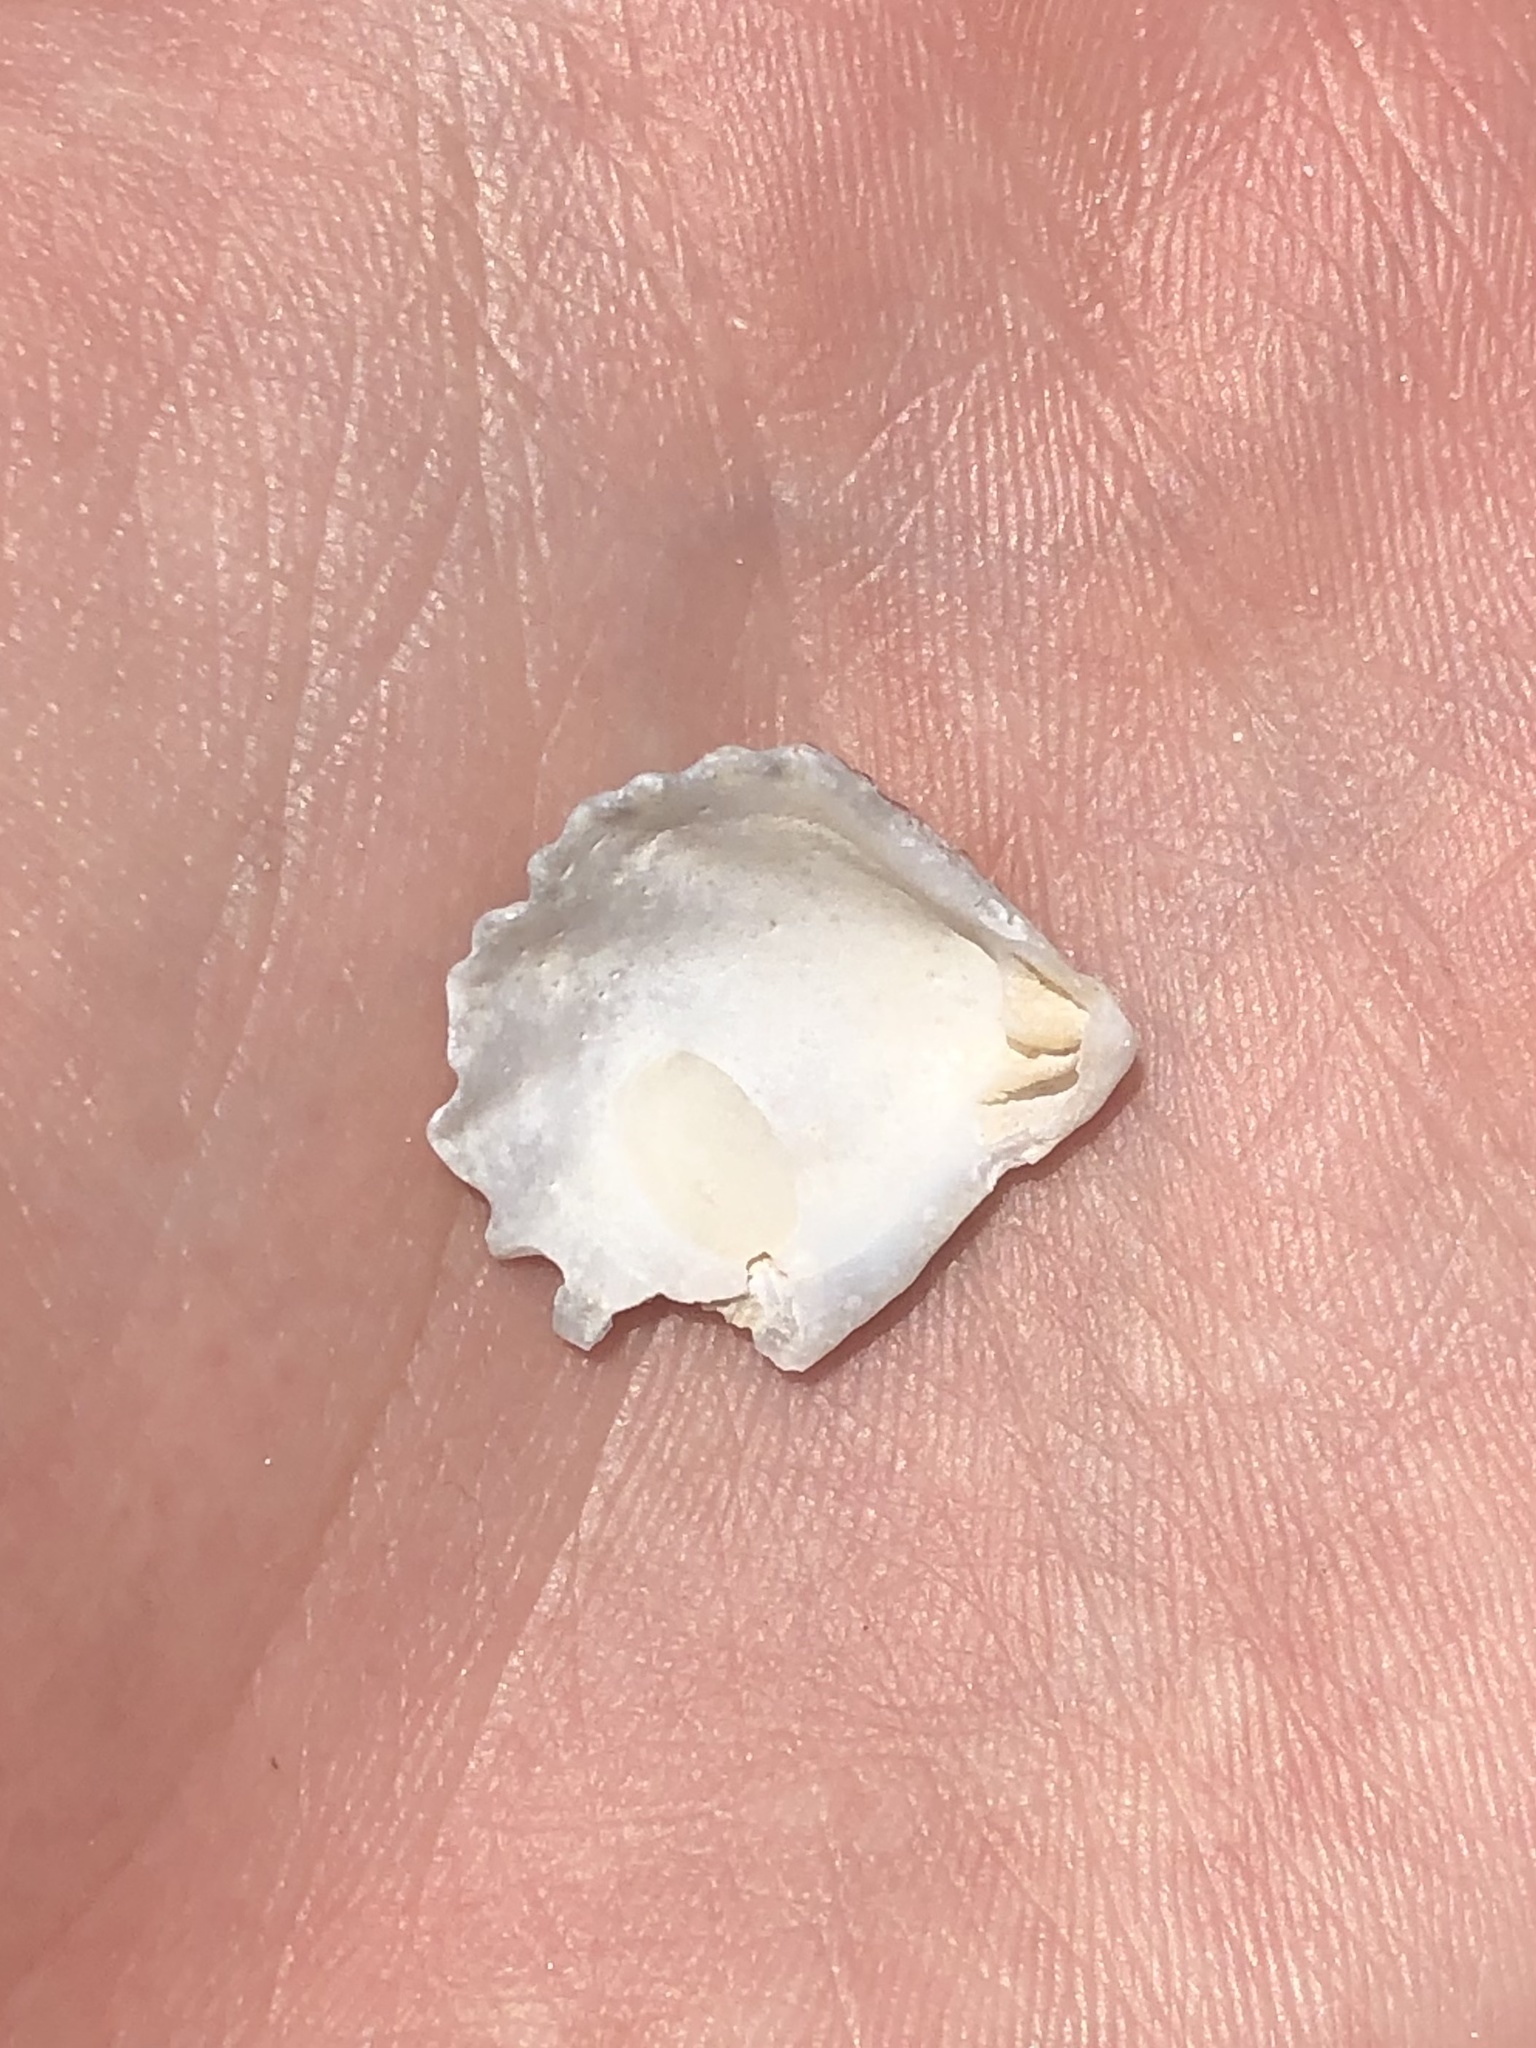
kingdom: Animalia
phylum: Mollusca
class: Bivalvia
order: Pectinida
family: Plicatulidae
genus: Plicatula
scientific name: Plicatula gibbosa
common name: Atlantic kitten's paw
